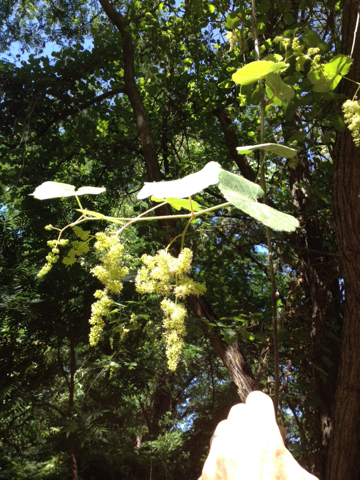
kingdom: Plantae
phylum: Tracheophyta
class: Magnoliopsida
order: Vitales
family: Vitaceae
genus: Vitis
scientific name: Vitis californica
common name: California wild grape
